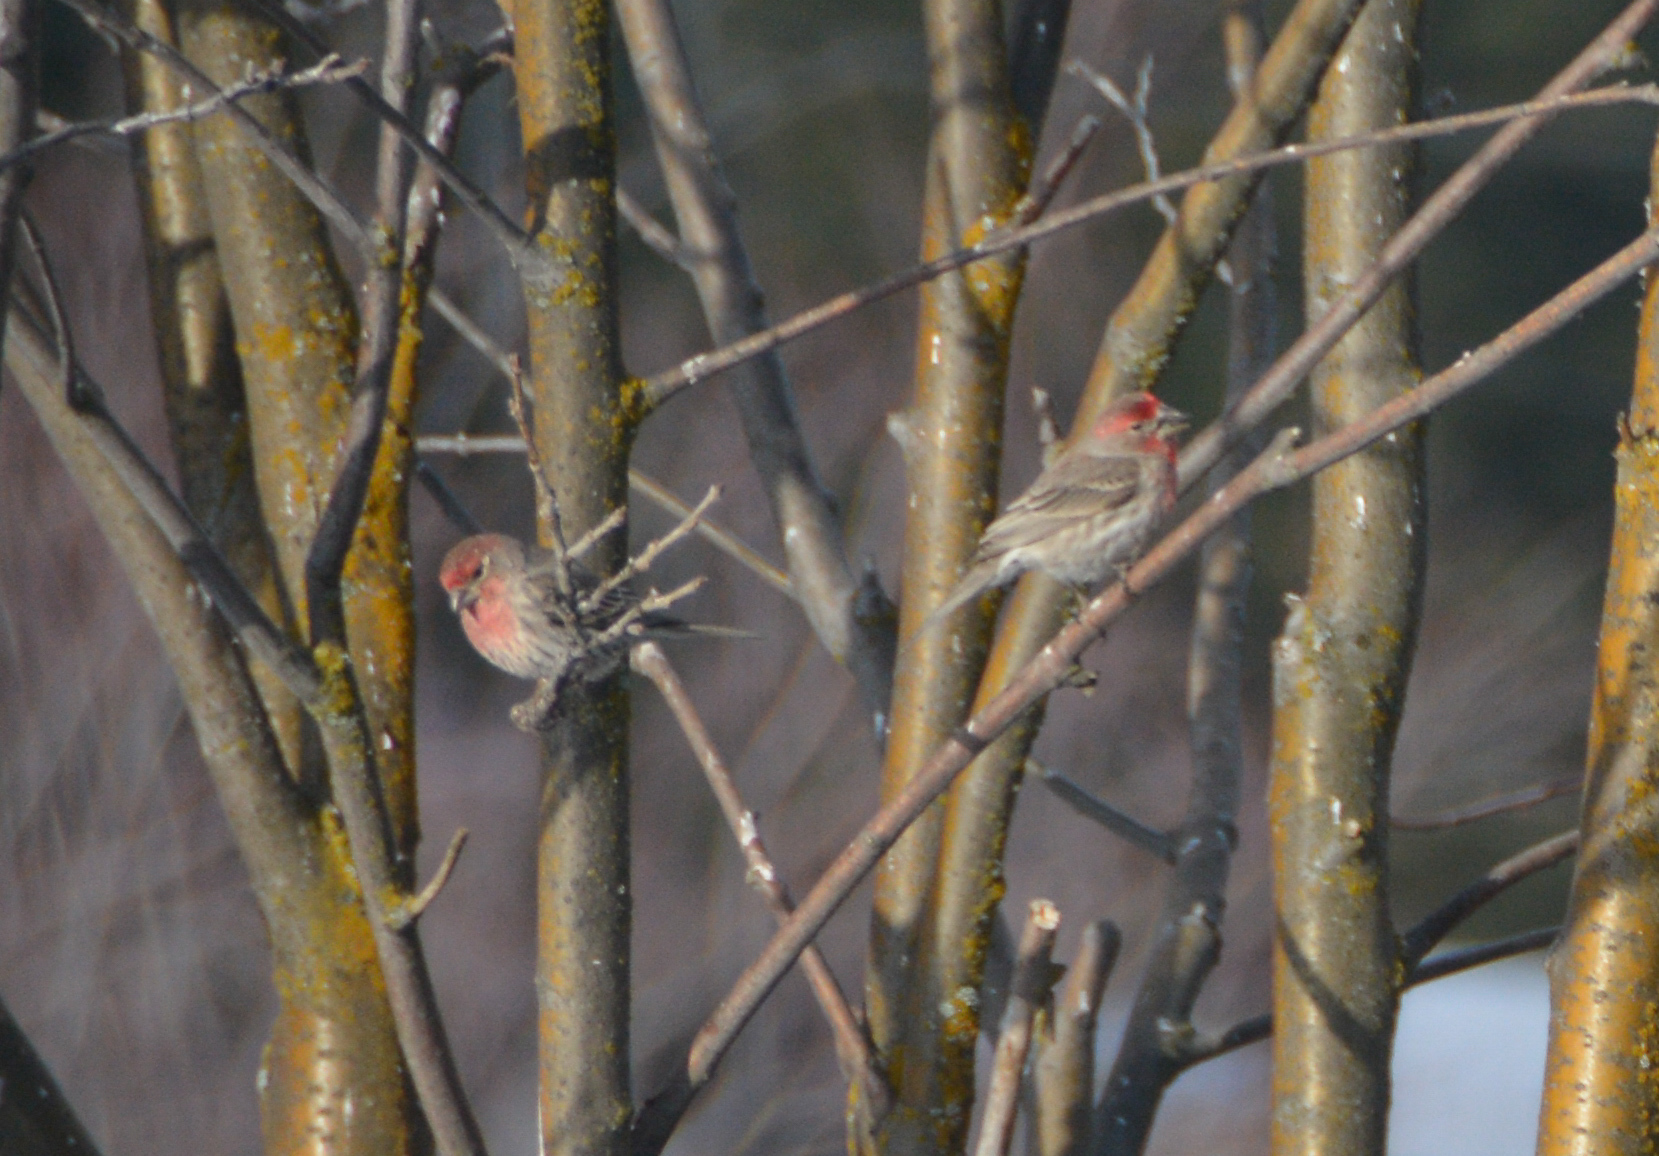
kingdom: Animalia
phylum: Chordata
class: Aves
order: Passeriformes
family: Fringillidae
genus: Haemorhous
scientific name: Haemorhous mexicanus
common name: House finch
